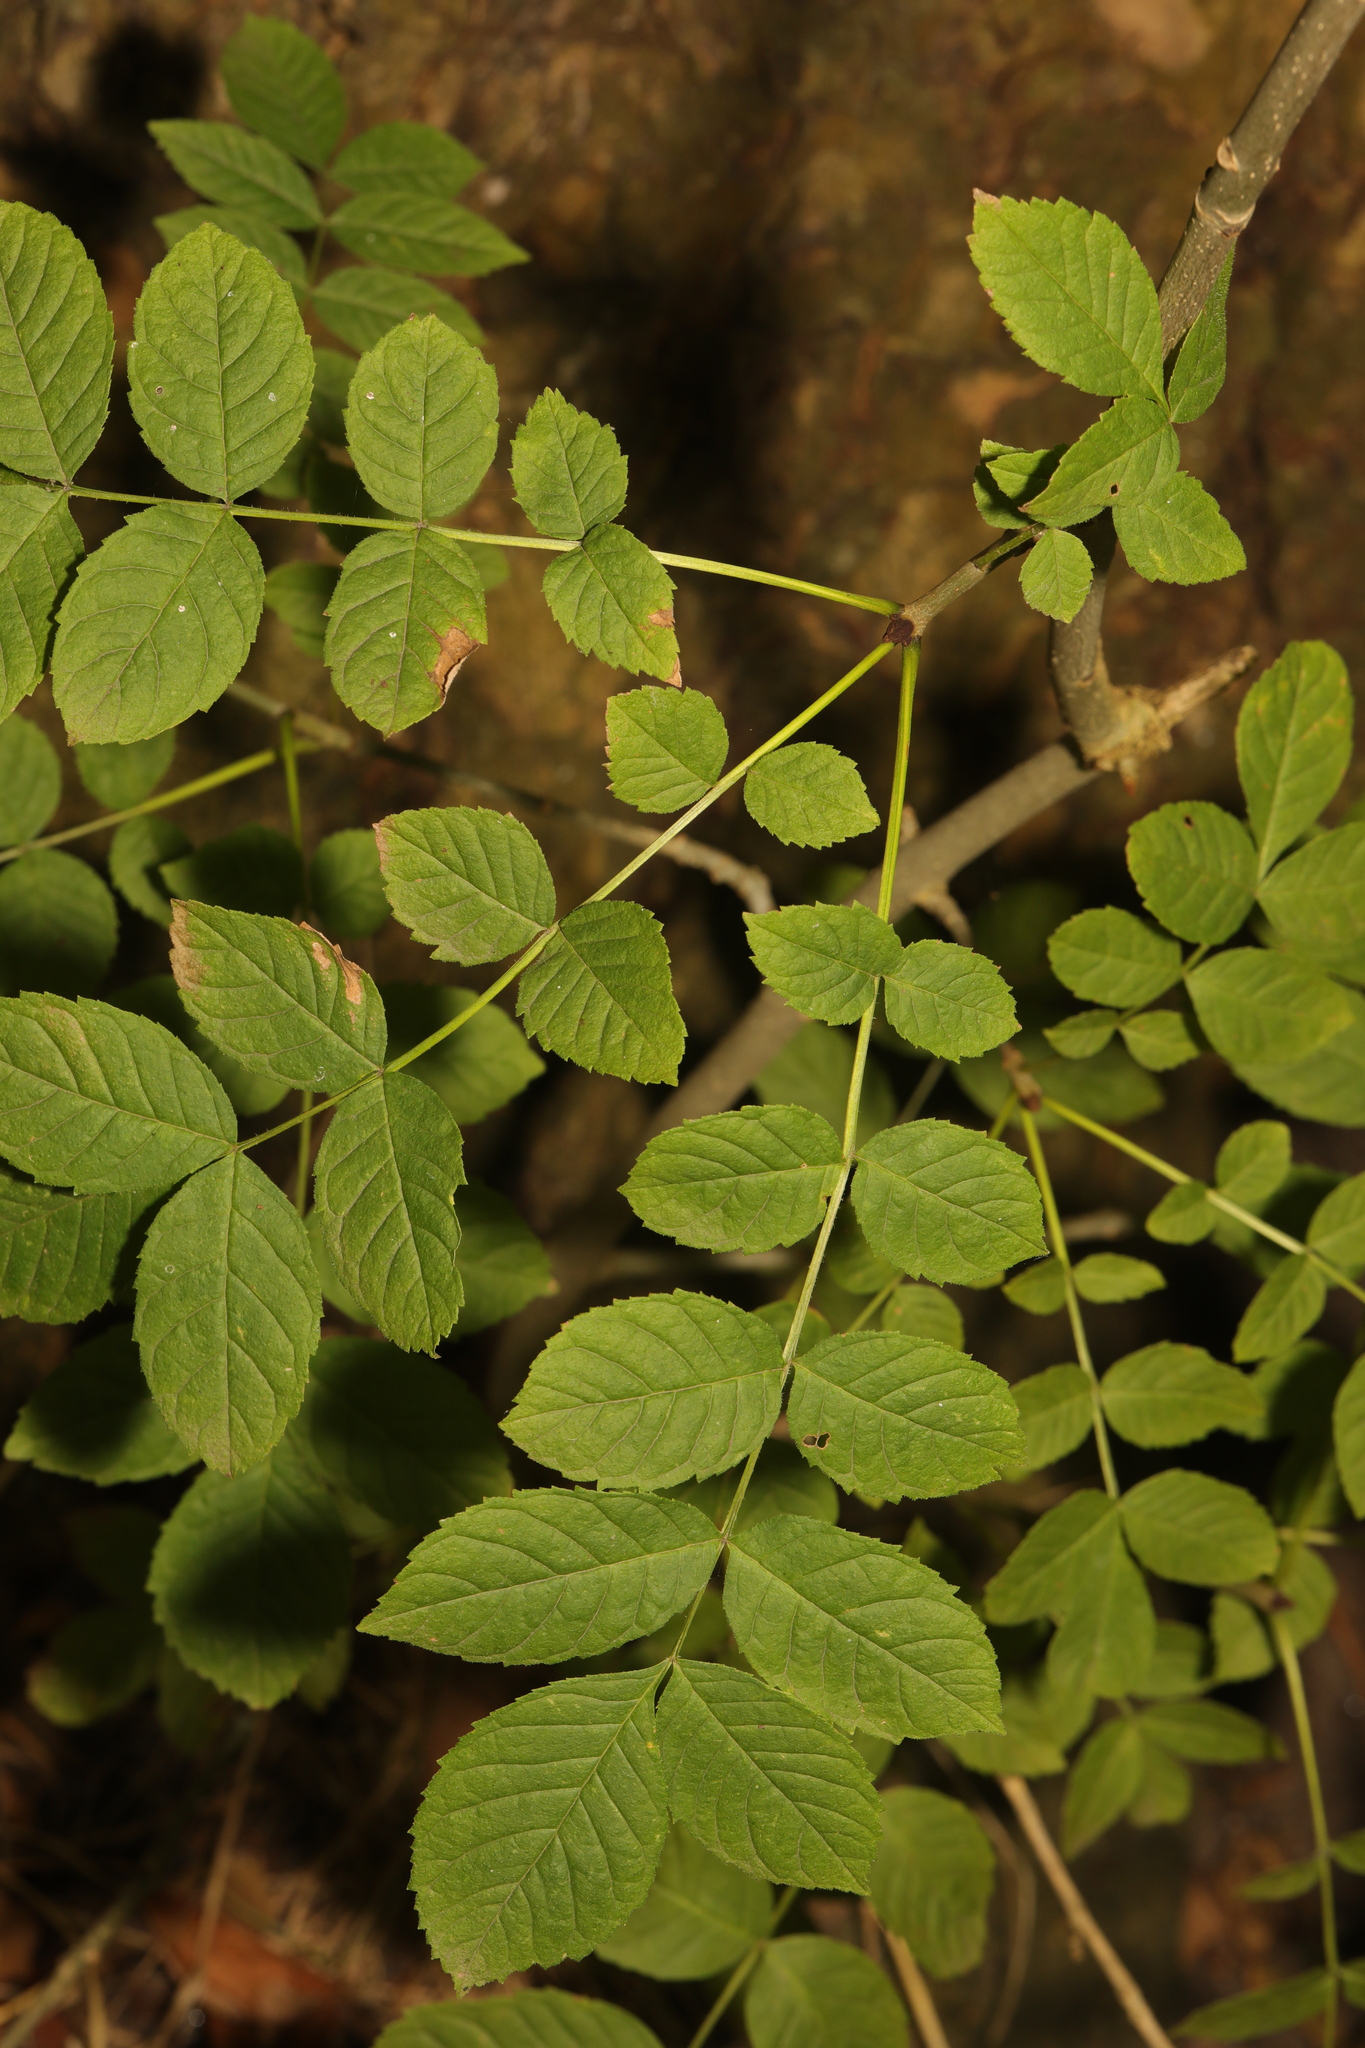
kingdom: Plantae
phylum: Tracheophyta
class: Magnoliopsida
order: Lamiales
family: Oleaceae
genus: Fraxinus
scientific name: Fraxinus excelsior
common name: European ash
